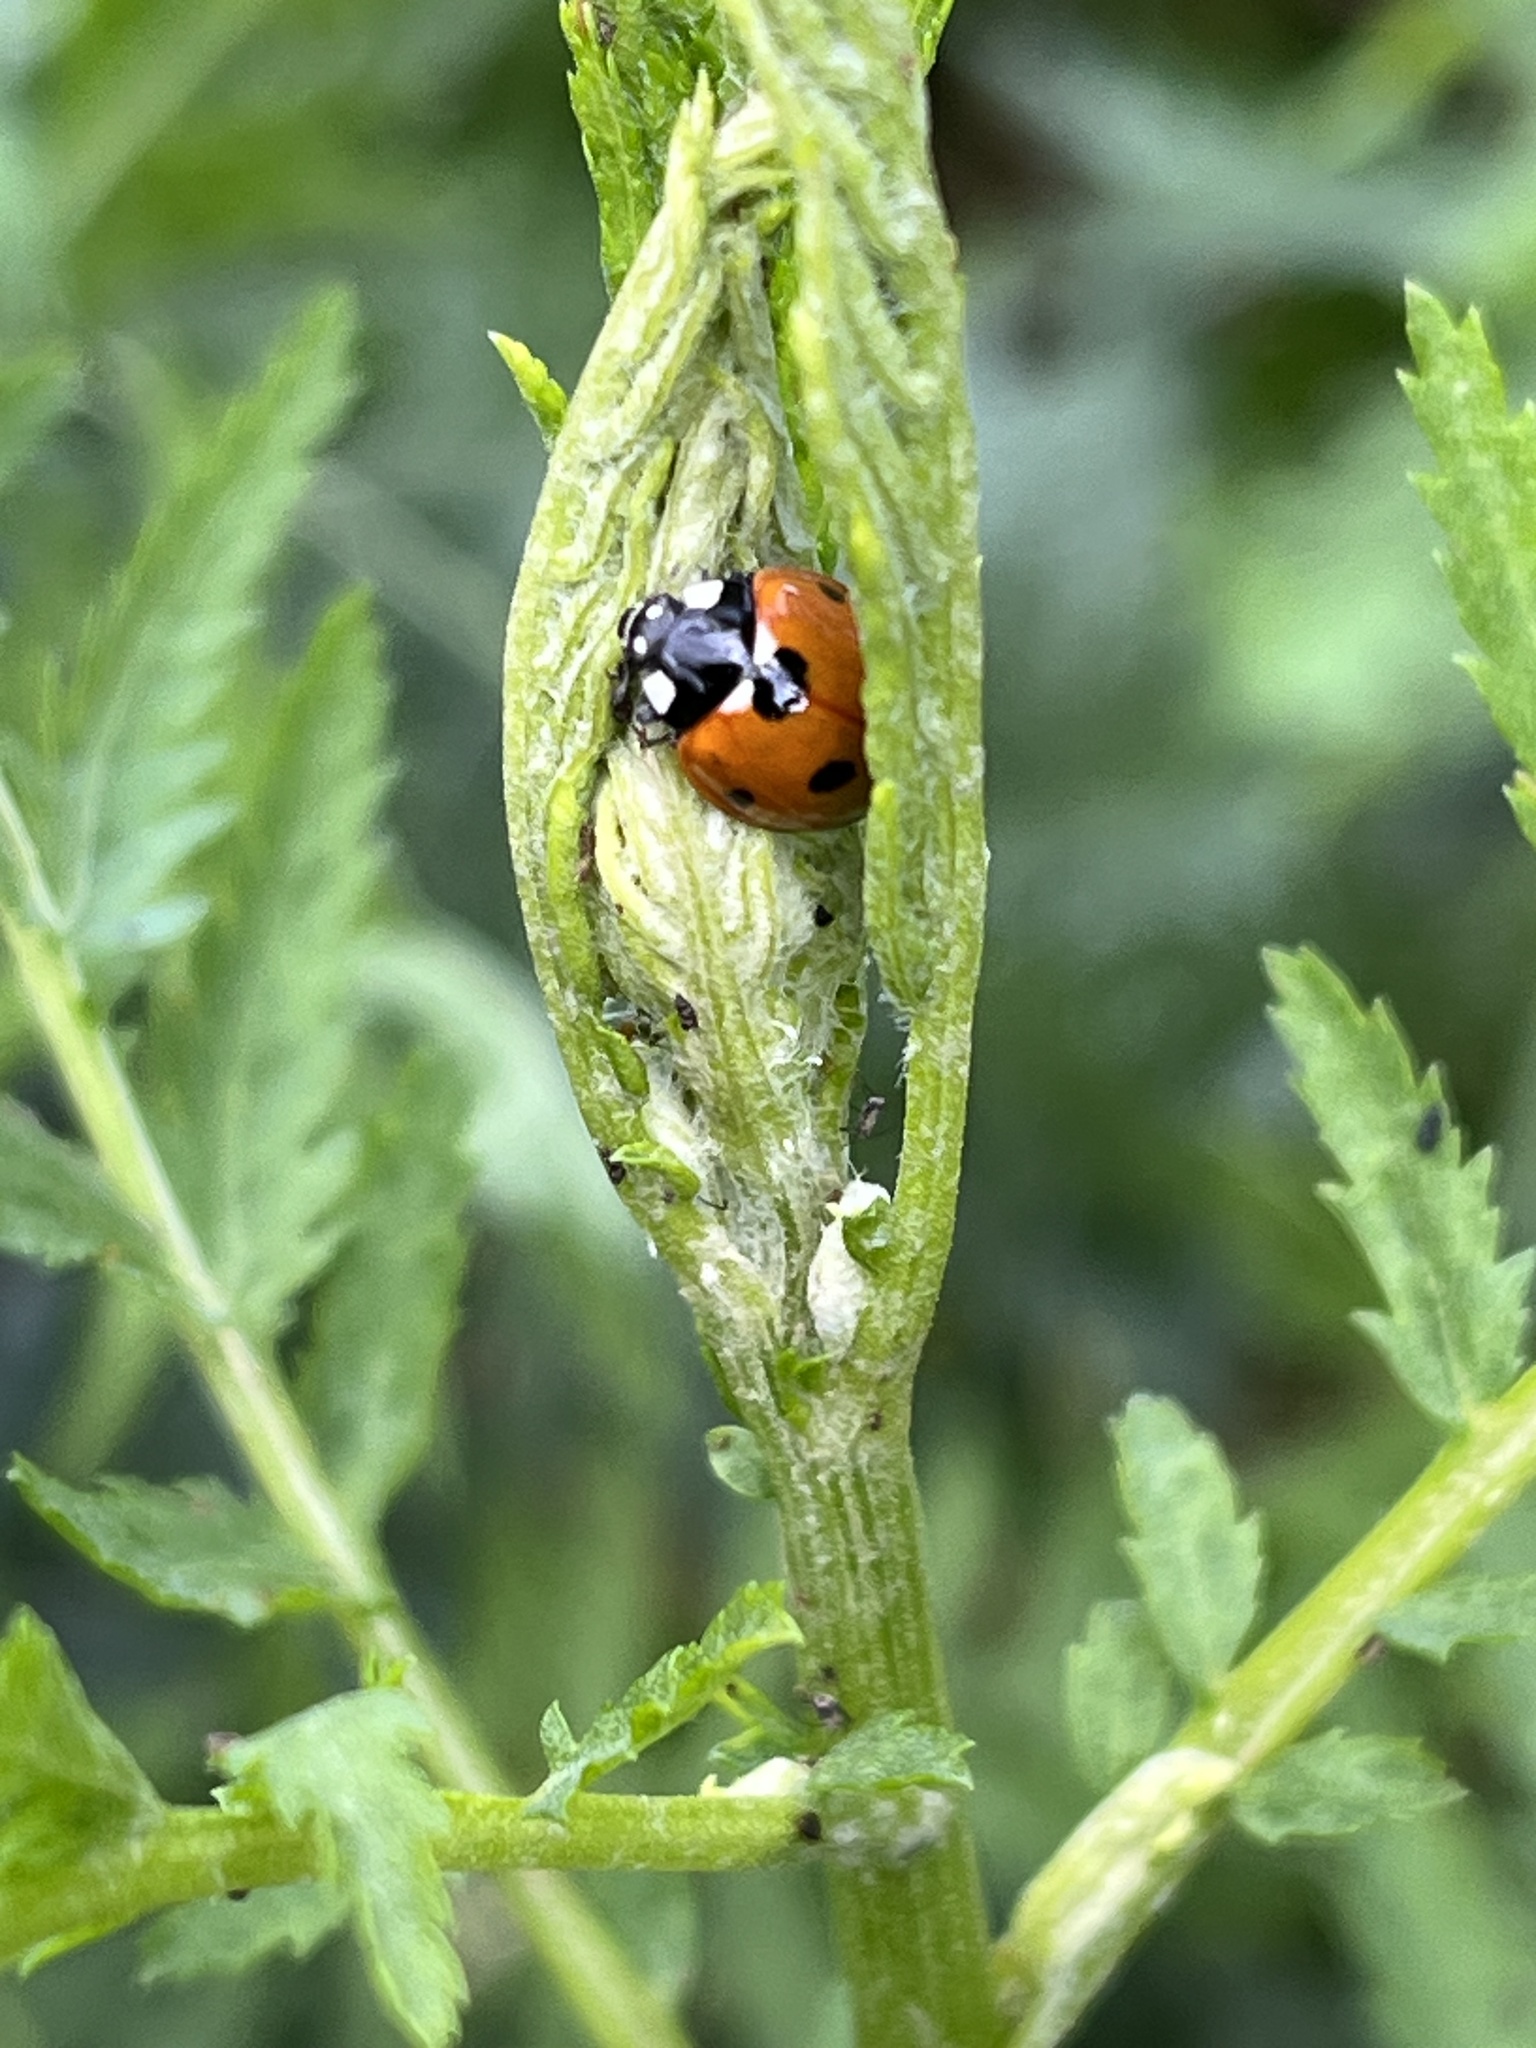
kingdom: Animalia
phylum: Arthropoda
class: Insecta
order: Coleoptera
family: Coccinellidae
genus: Coccinella
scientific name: Coccinella septempunctata
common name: Sevenspotted lady beetle
